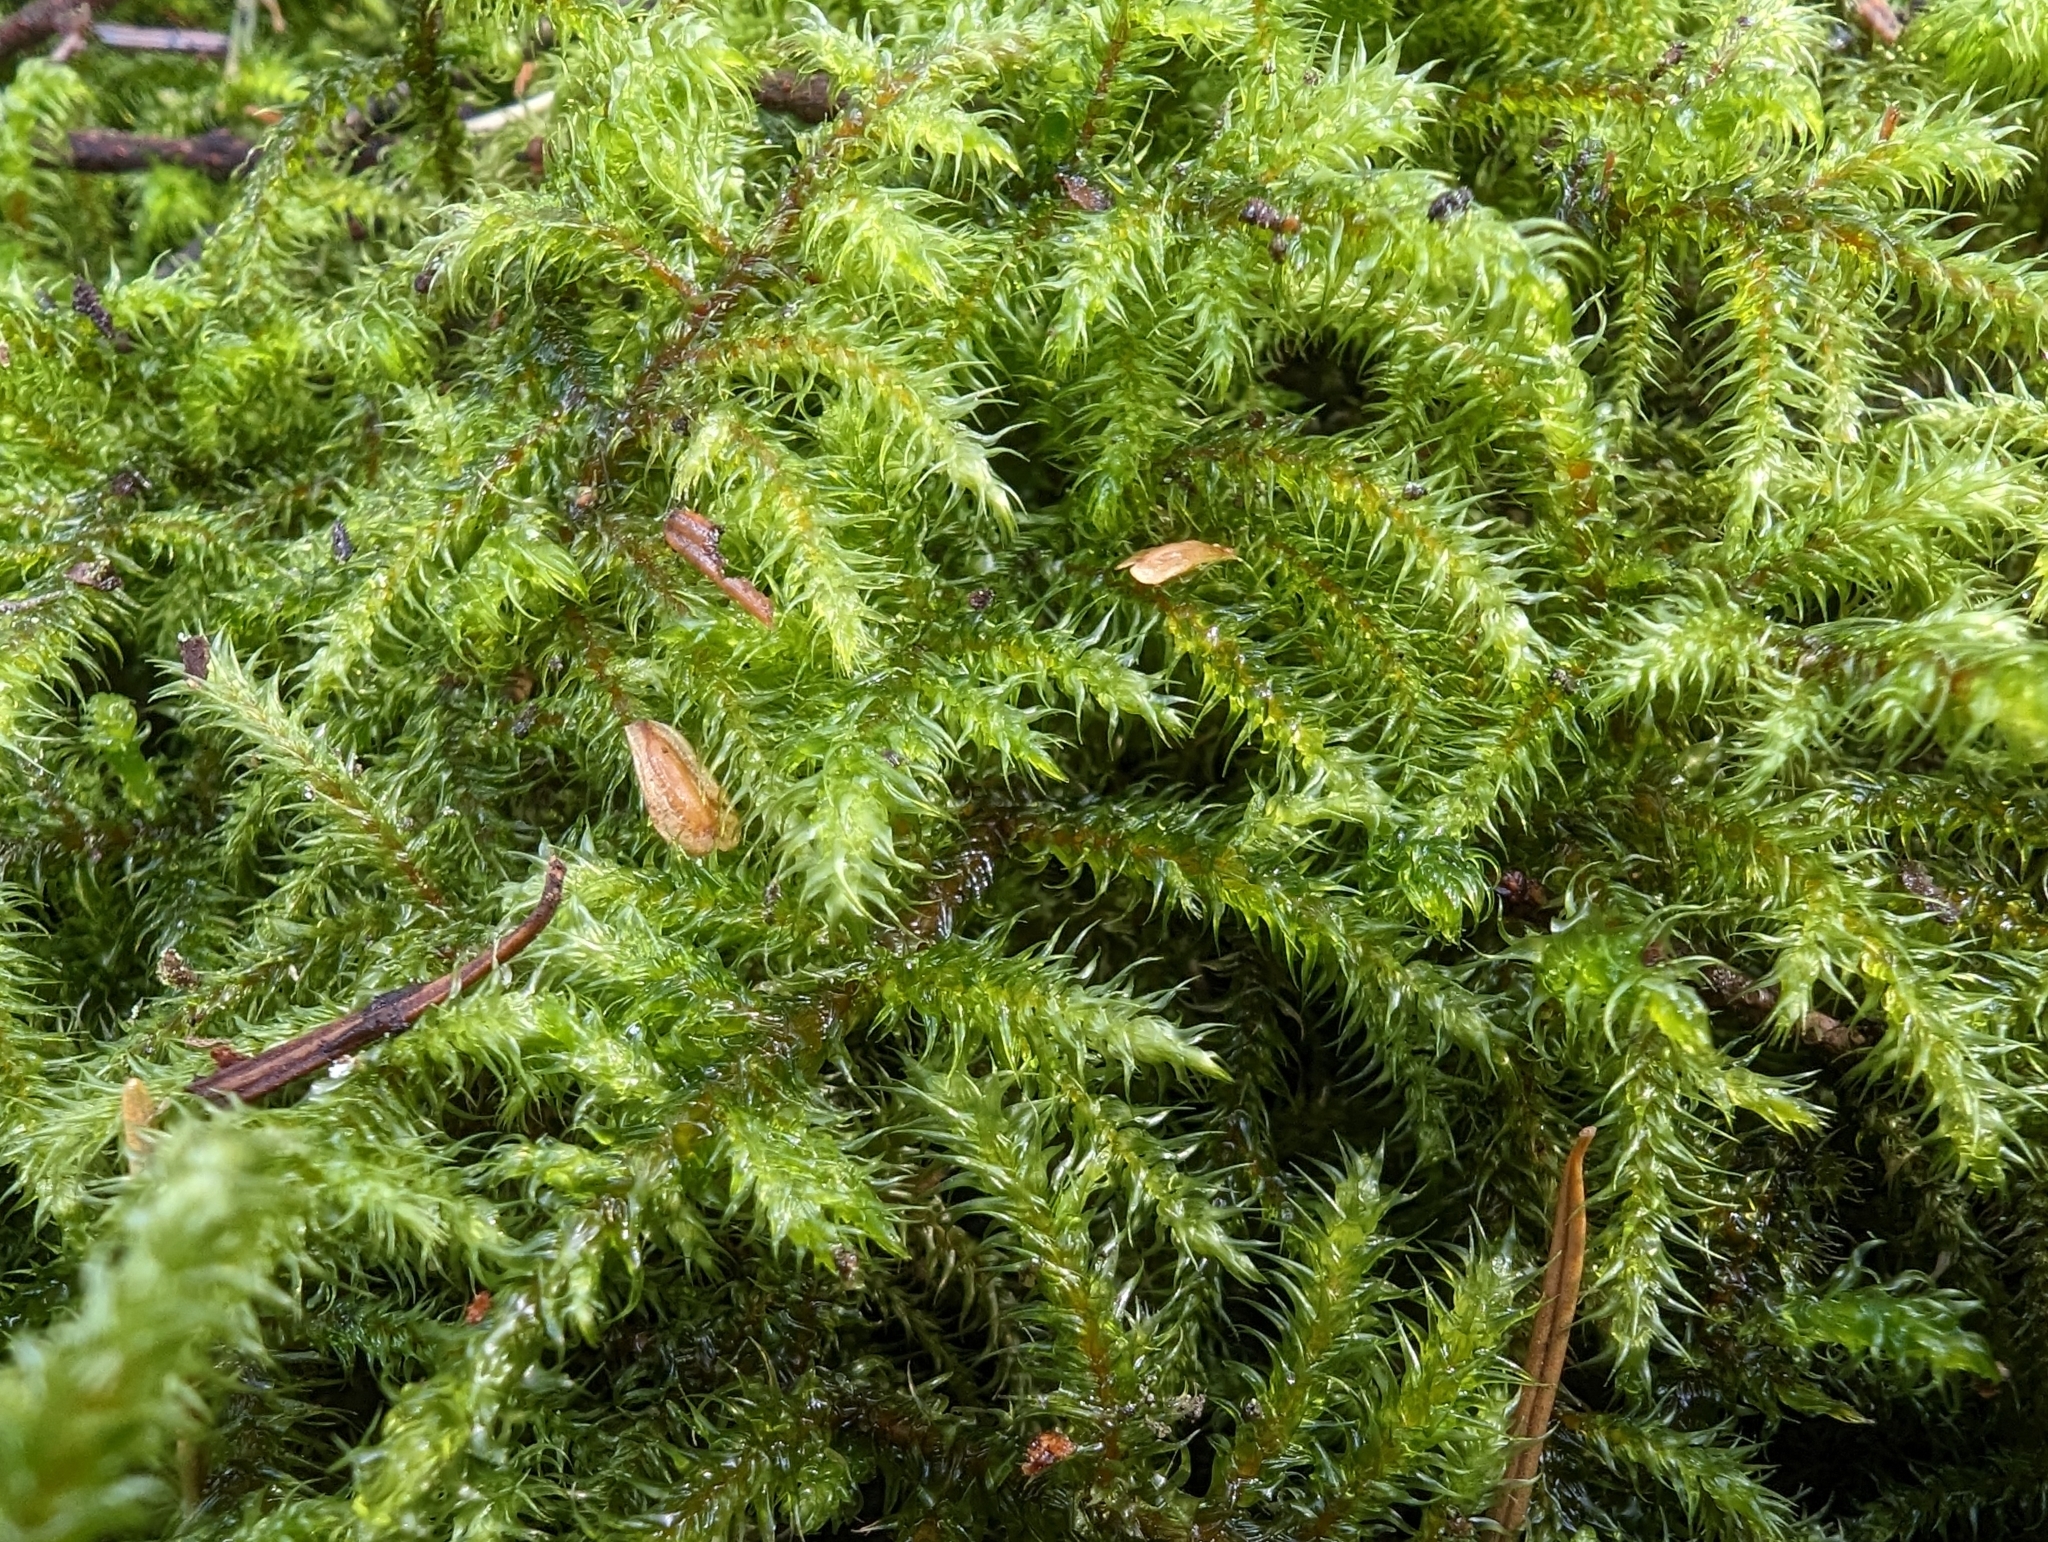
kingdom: Plantae
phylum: Bryophyta
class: Bryopsida
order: Hypnales
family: Hylocomiaceae
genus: Rhytidiadelphus
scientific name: Rhytidiadelphus loreus
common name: Lanky moss
